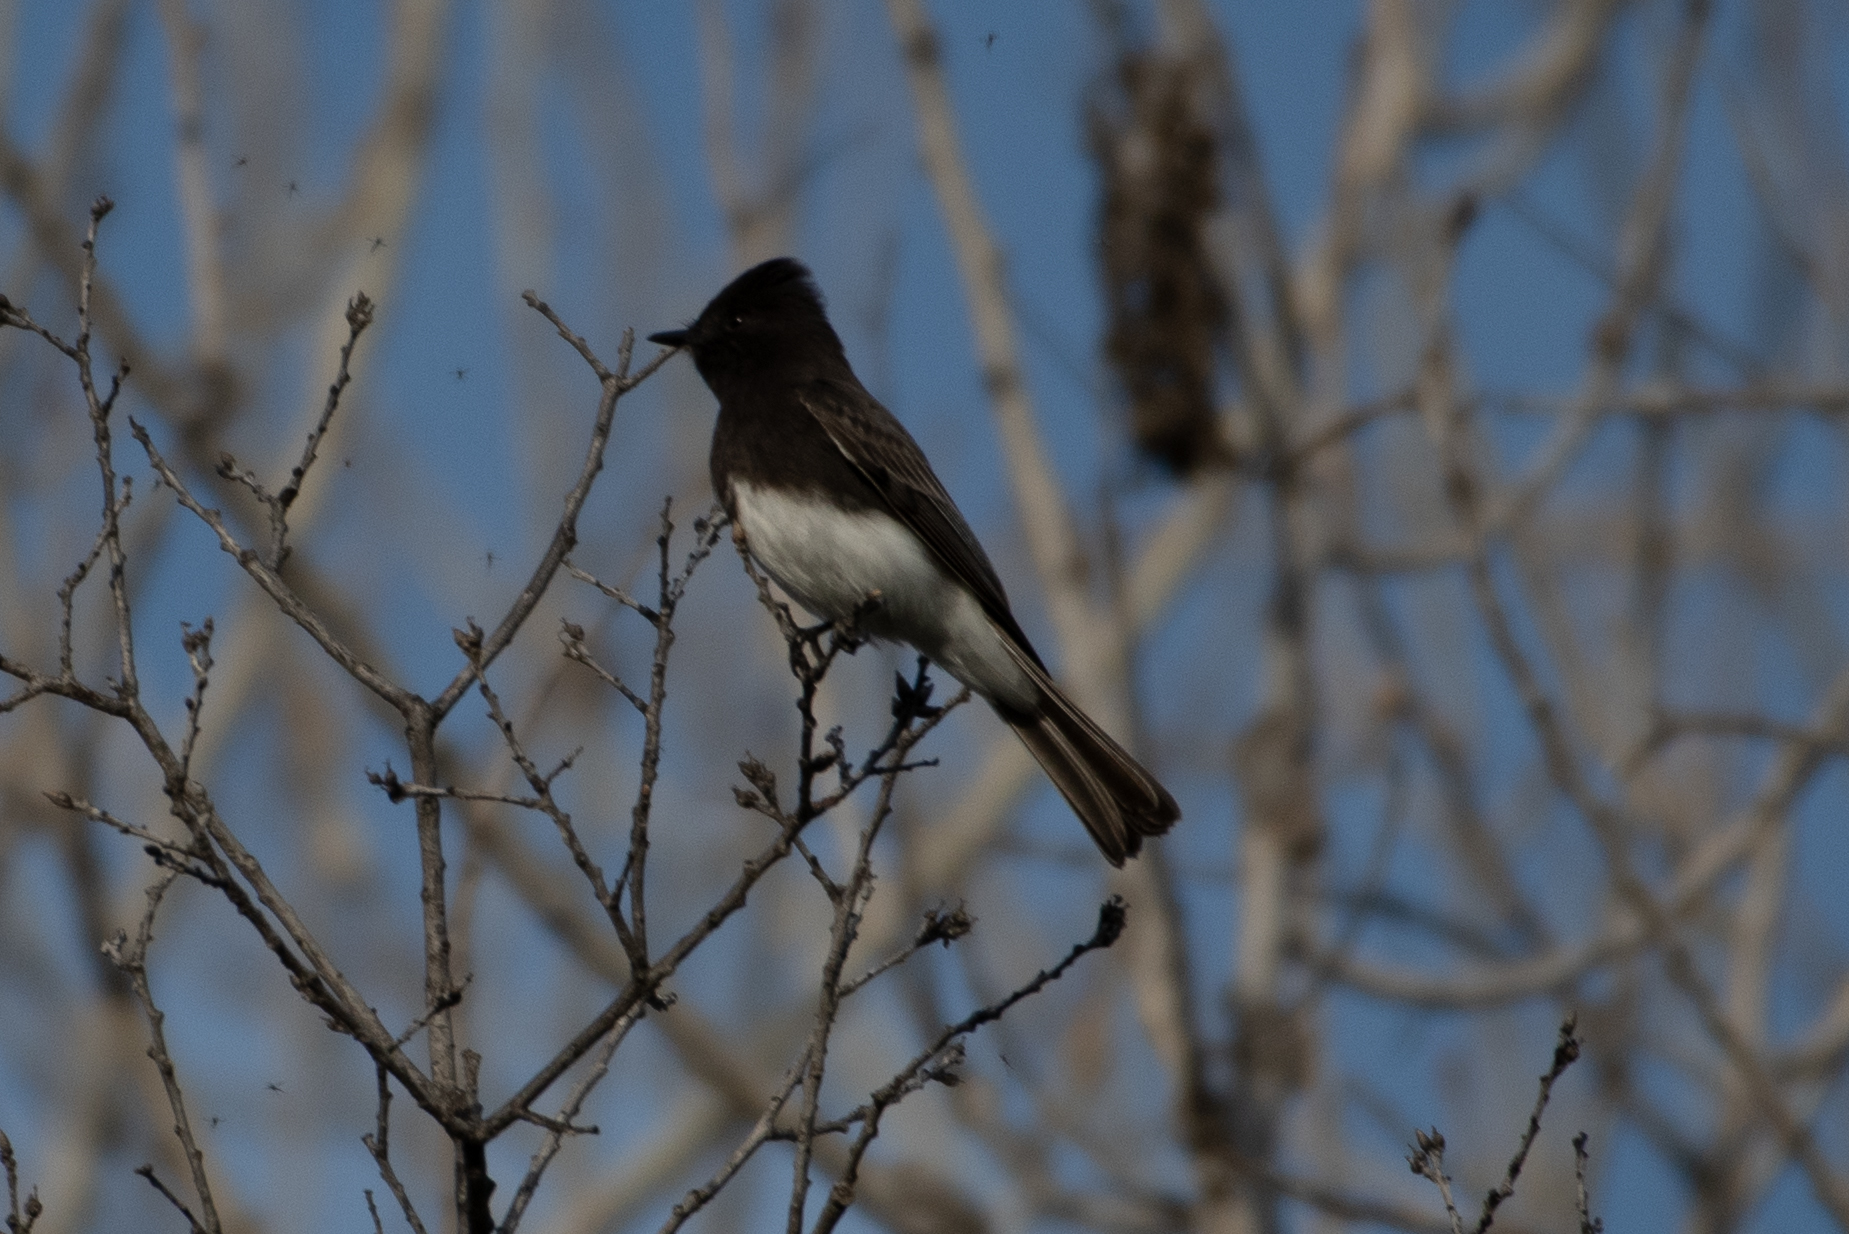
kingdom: Animalia
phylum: Chordata
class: Aves
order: Passeriformes
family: Tyrannidae
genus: Sayornis
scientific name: Sayornis nigricans
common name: Black phoebe
